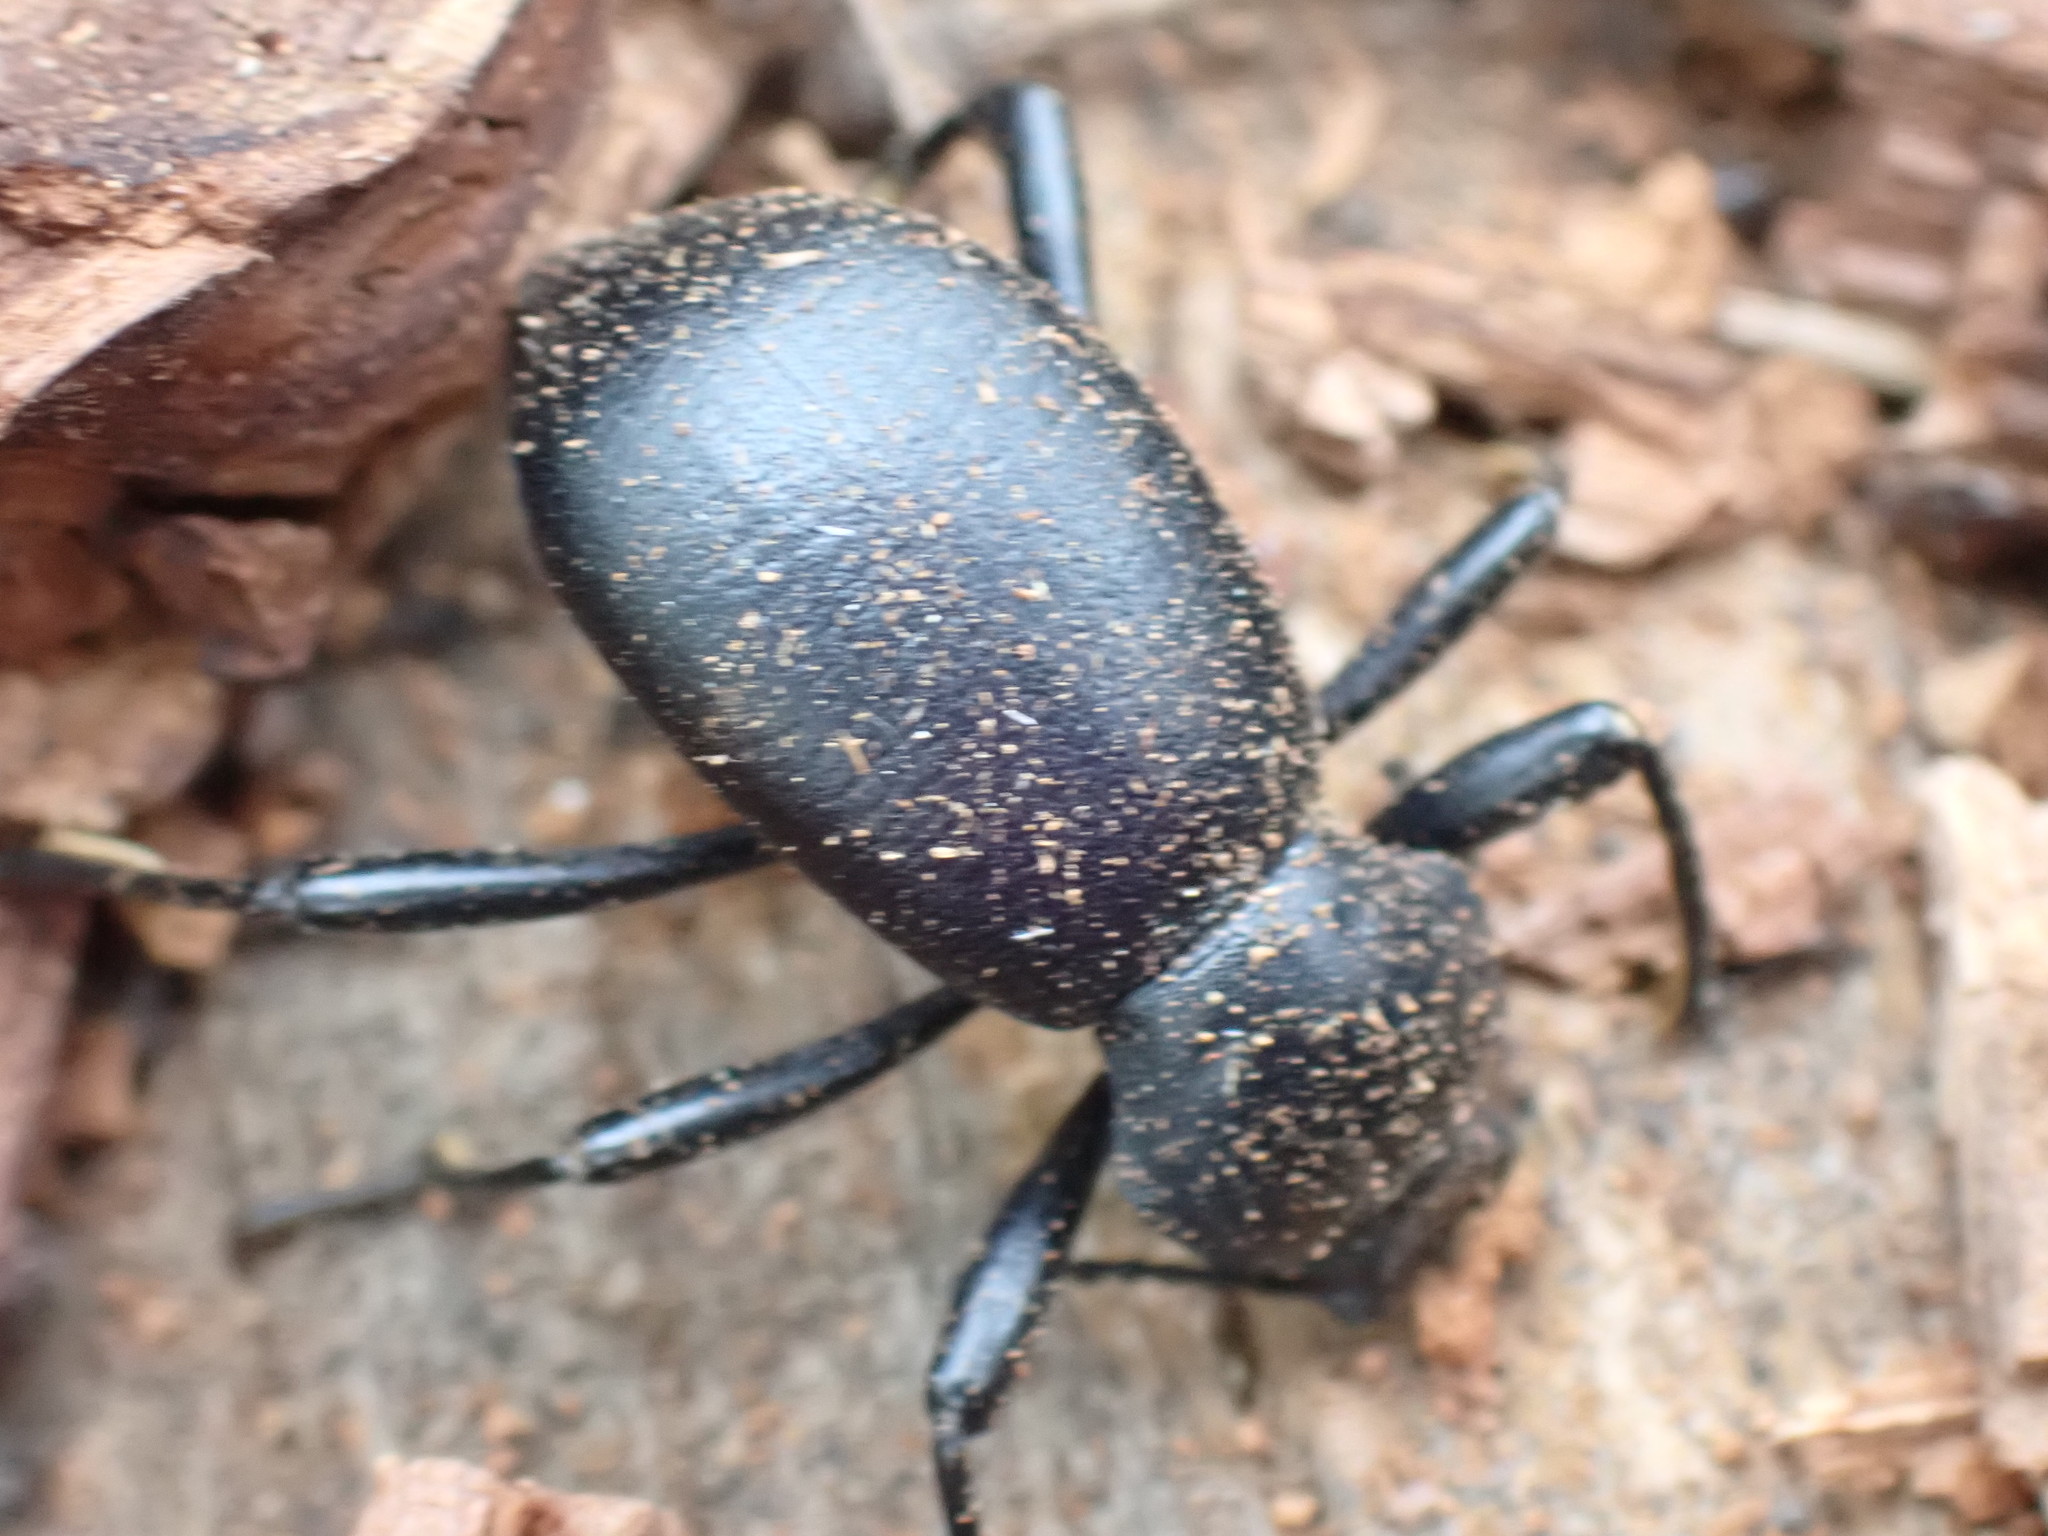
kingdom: Animalia
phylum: Arthropoda
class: Insecta
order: Coleoptera
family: Tenebrionidae
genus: Coelocnemis
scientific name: Coelocnemis dilaticollis
